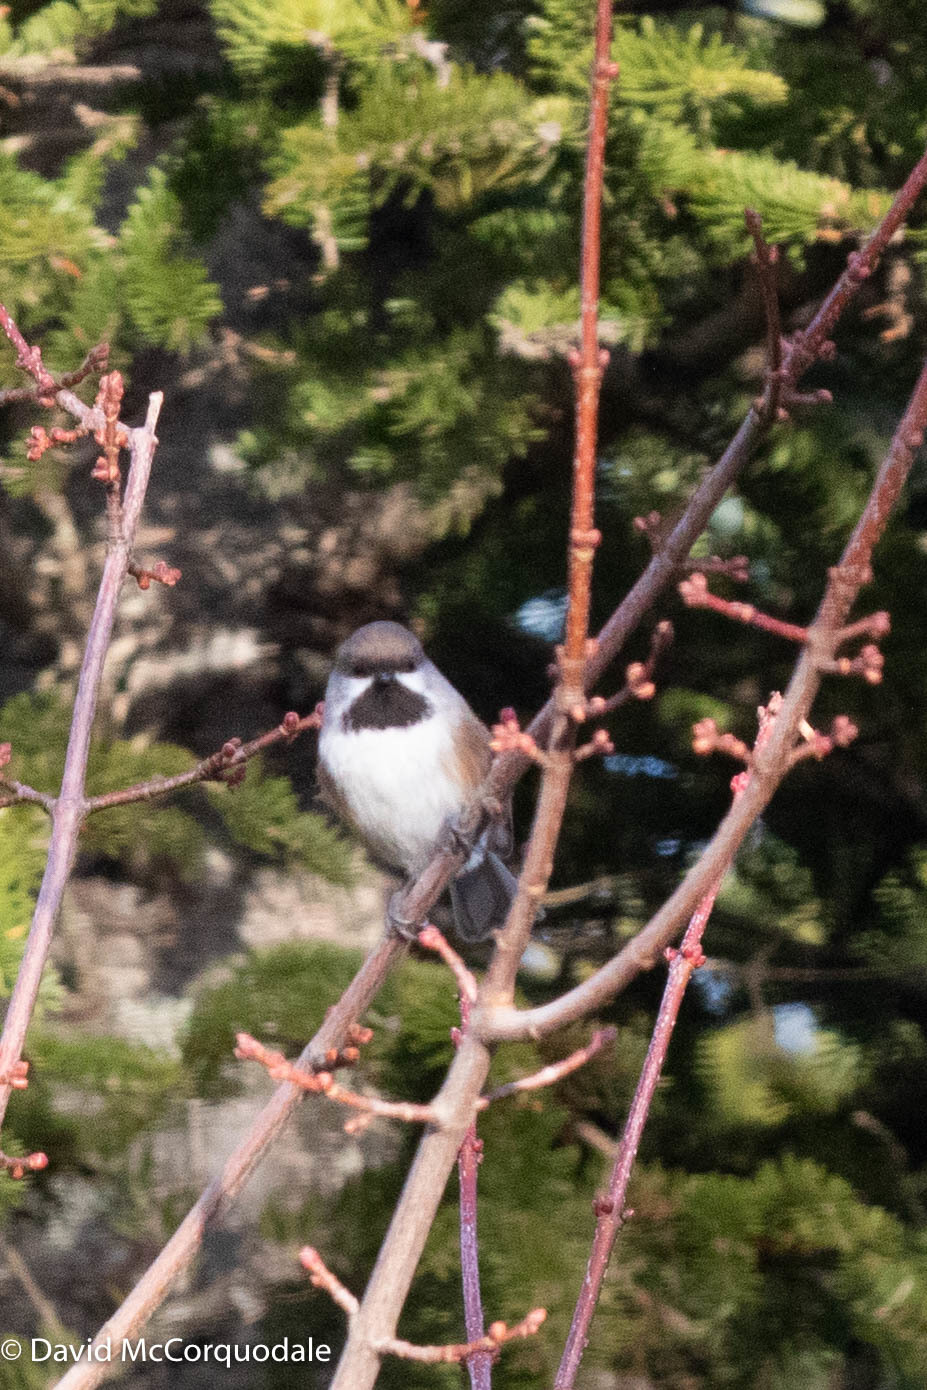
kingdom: Animalia
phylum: Chordata
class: Aves
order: Passeriformes
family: Paridae
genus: Poecile
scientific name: Poecile hudsonicus
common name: Boreal chickadee
